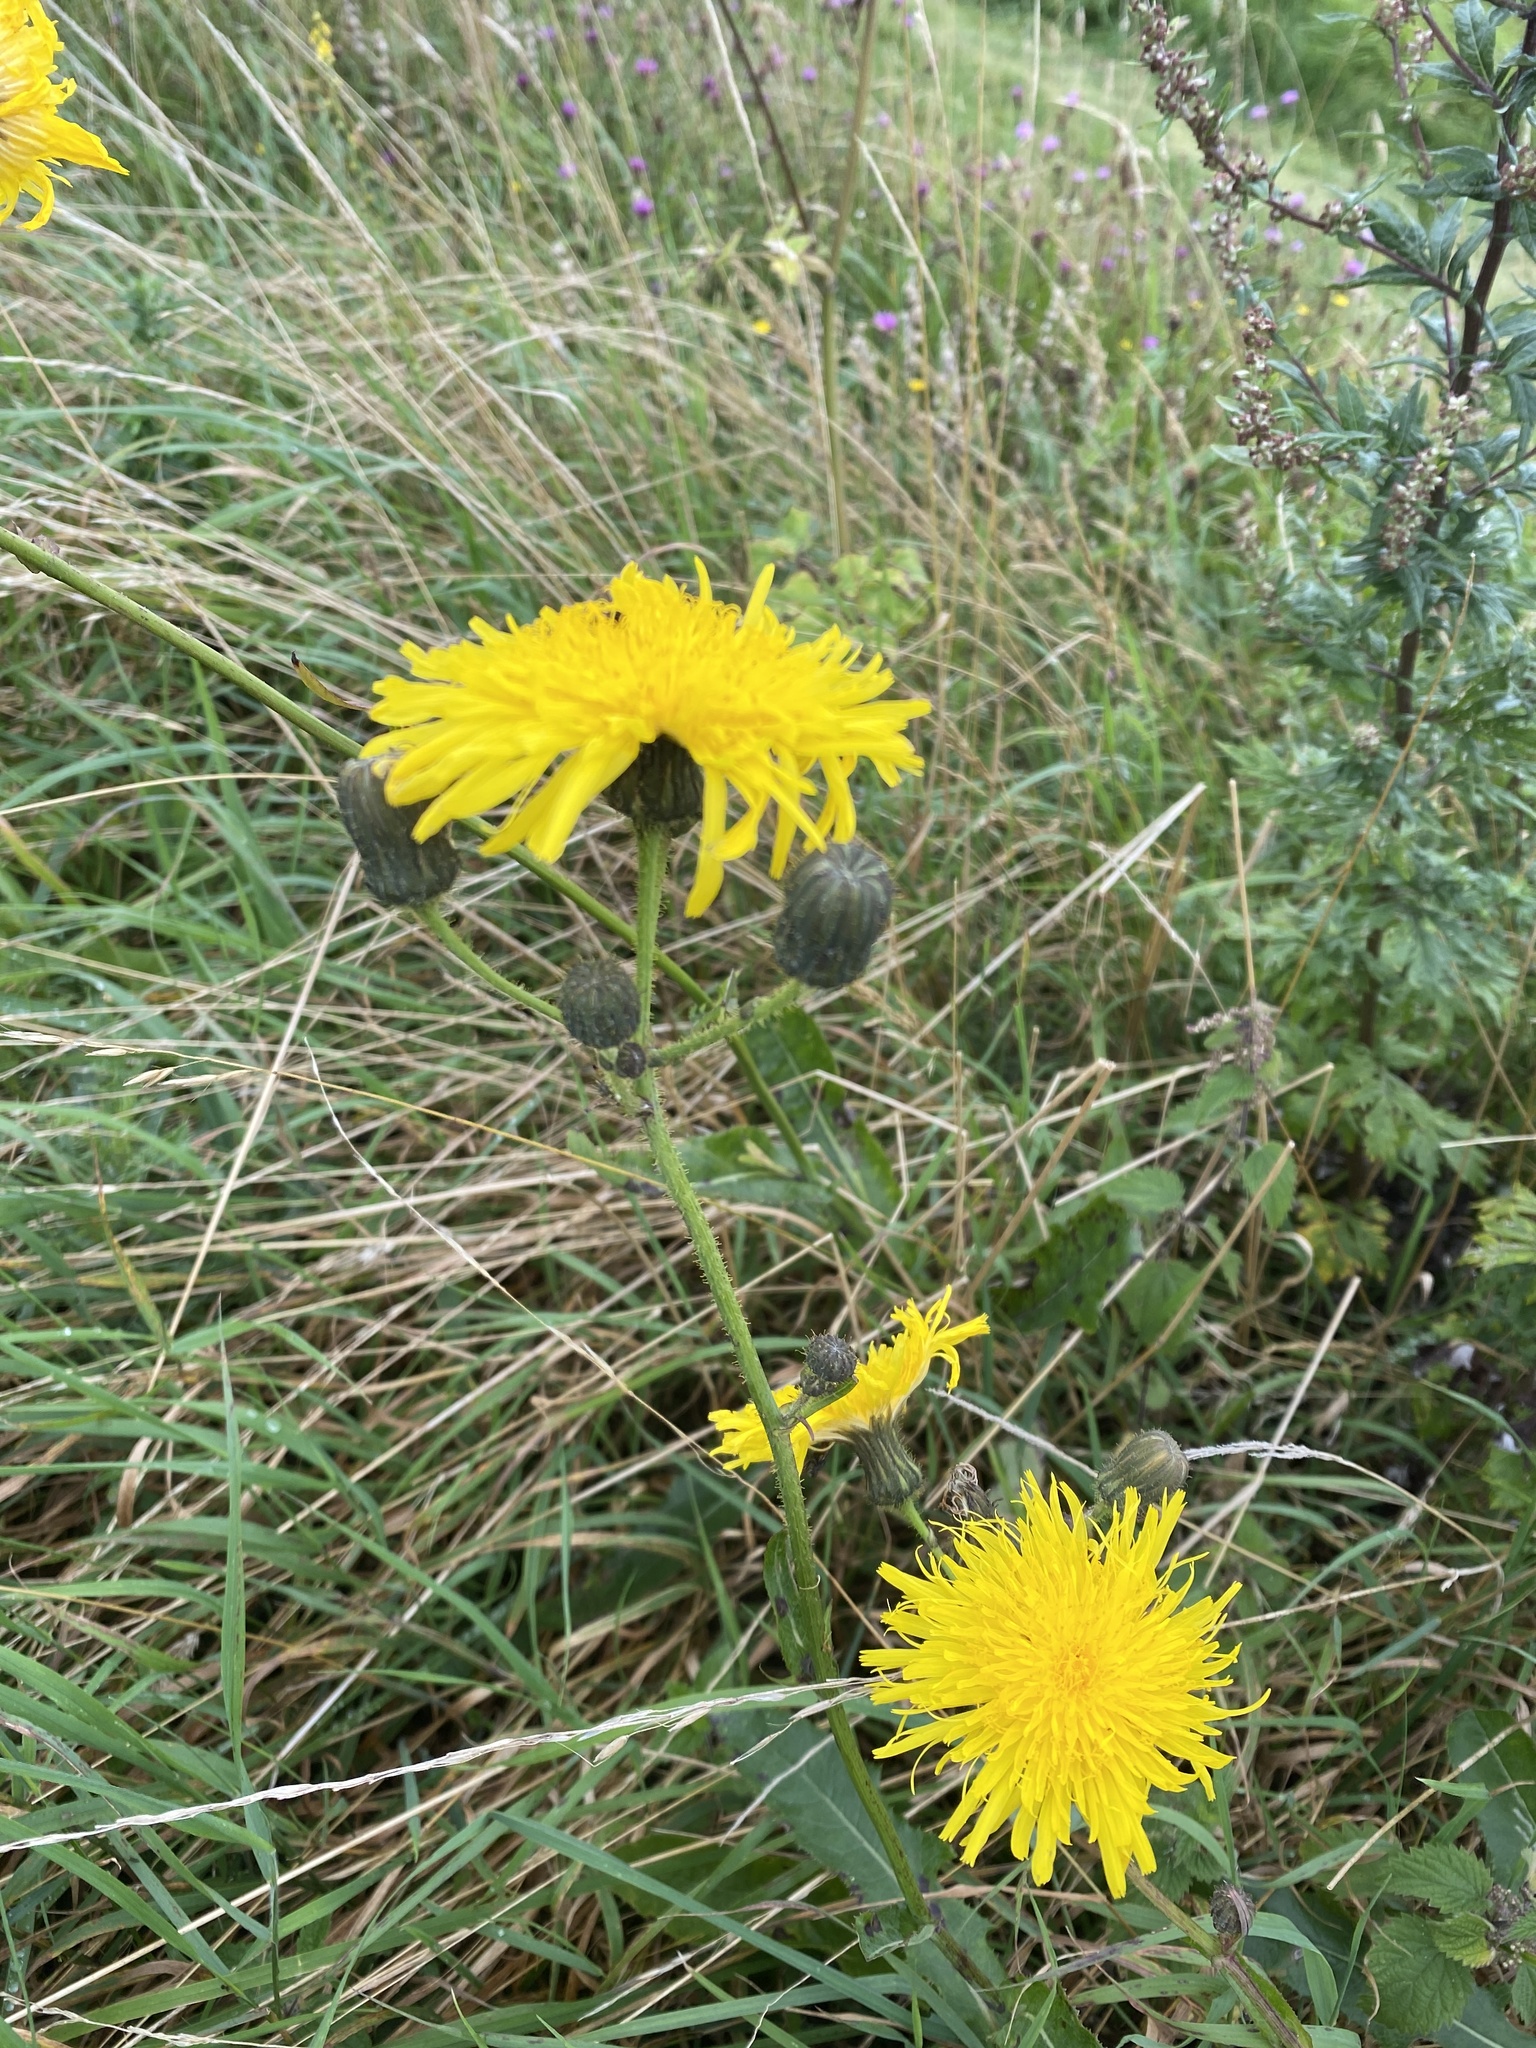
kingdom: Plantae
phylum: Tracheophyta
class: Magnoliopsida
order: Asterales
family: Asteraceae
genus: Sonchus
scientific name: Sonchus arvensis
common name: Perennial sow-thistle
